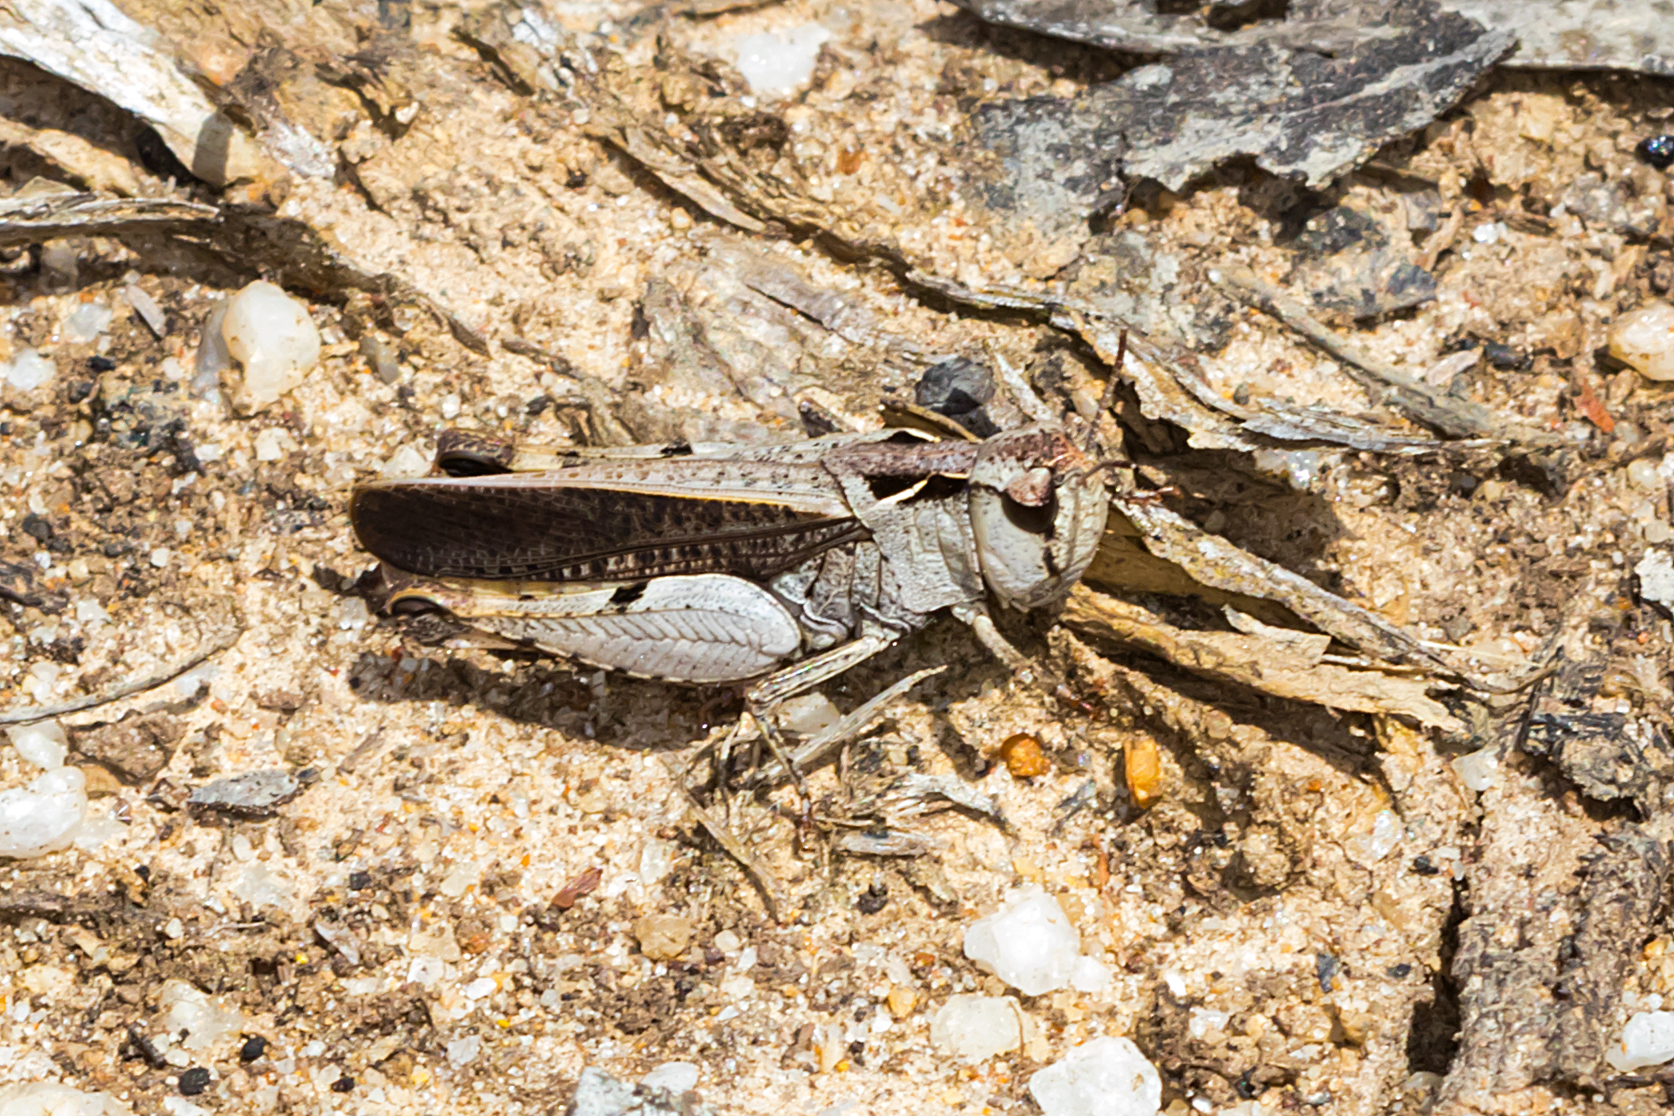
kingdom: Animalia
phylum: Arthropoda
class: Insecta
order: Orthoptera
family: Acrididae
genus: Cryptobothrus
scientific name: Cryptobothrus chrysophorus
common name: Golden bandwing
